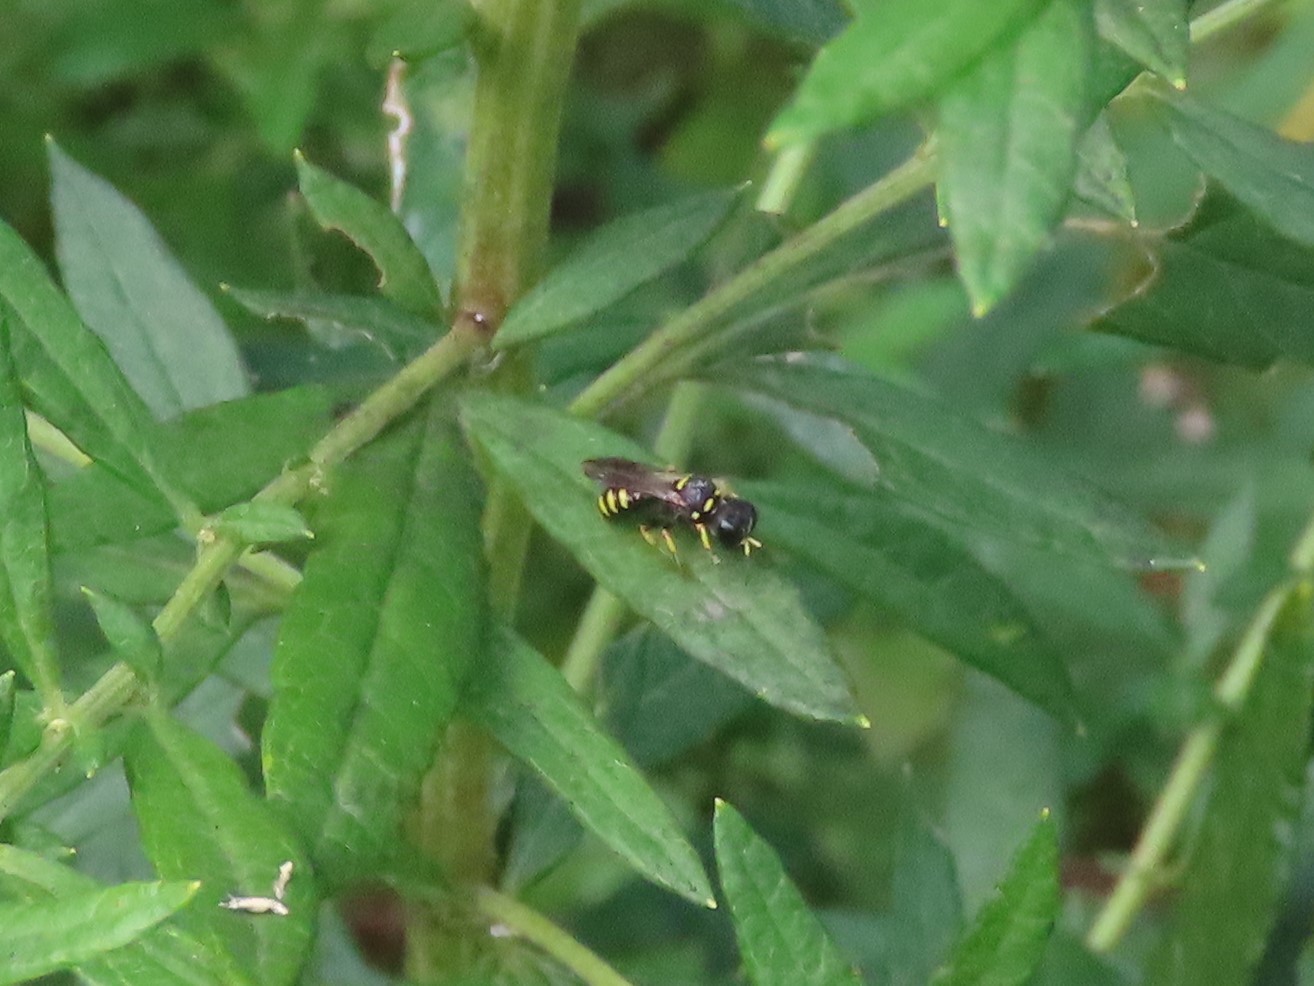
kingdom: Animalia
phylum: Arthropoda
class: Insecta
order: Hymenoptera
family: Crabronidae
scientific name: Crabronidae
